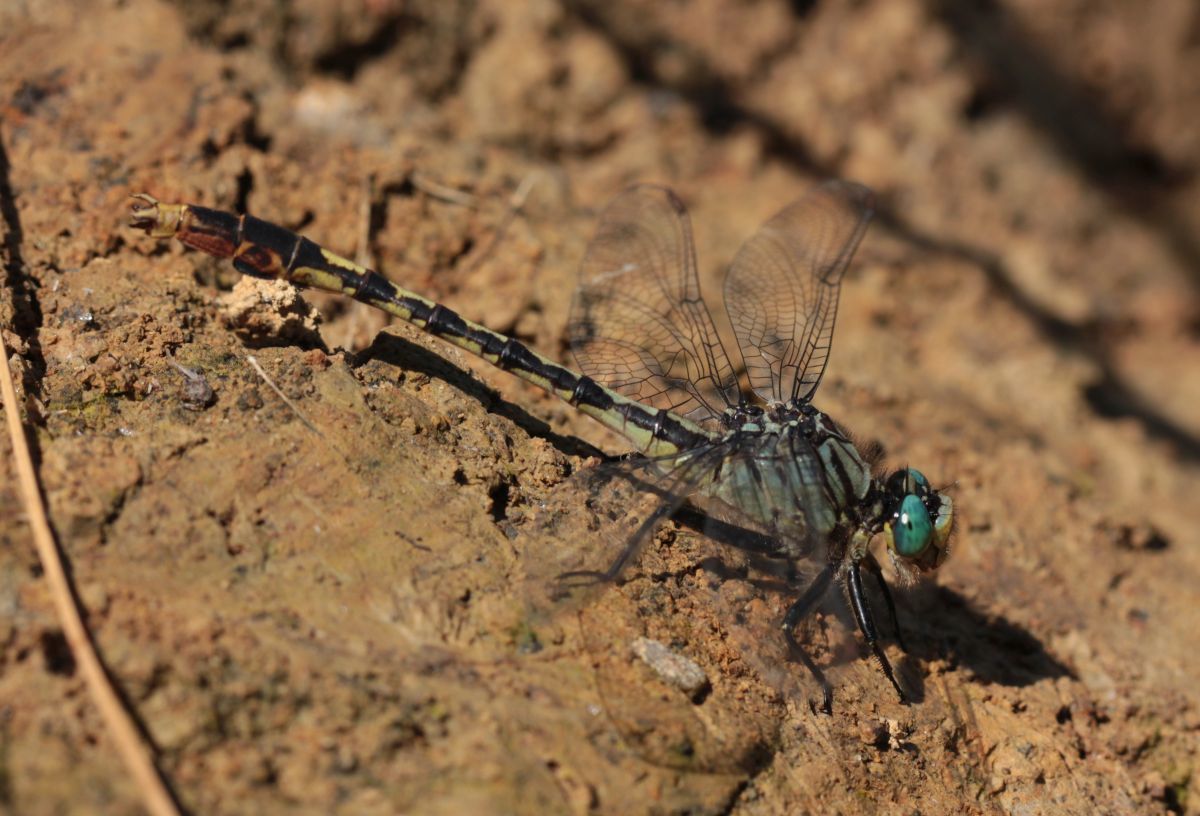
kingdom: Animalia
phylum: Arthropoda
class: Insecta
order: Odonata
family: Gomphidae
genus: Arigomphus
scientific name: Arigomphus villosipes
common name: Unicorn clubtail
